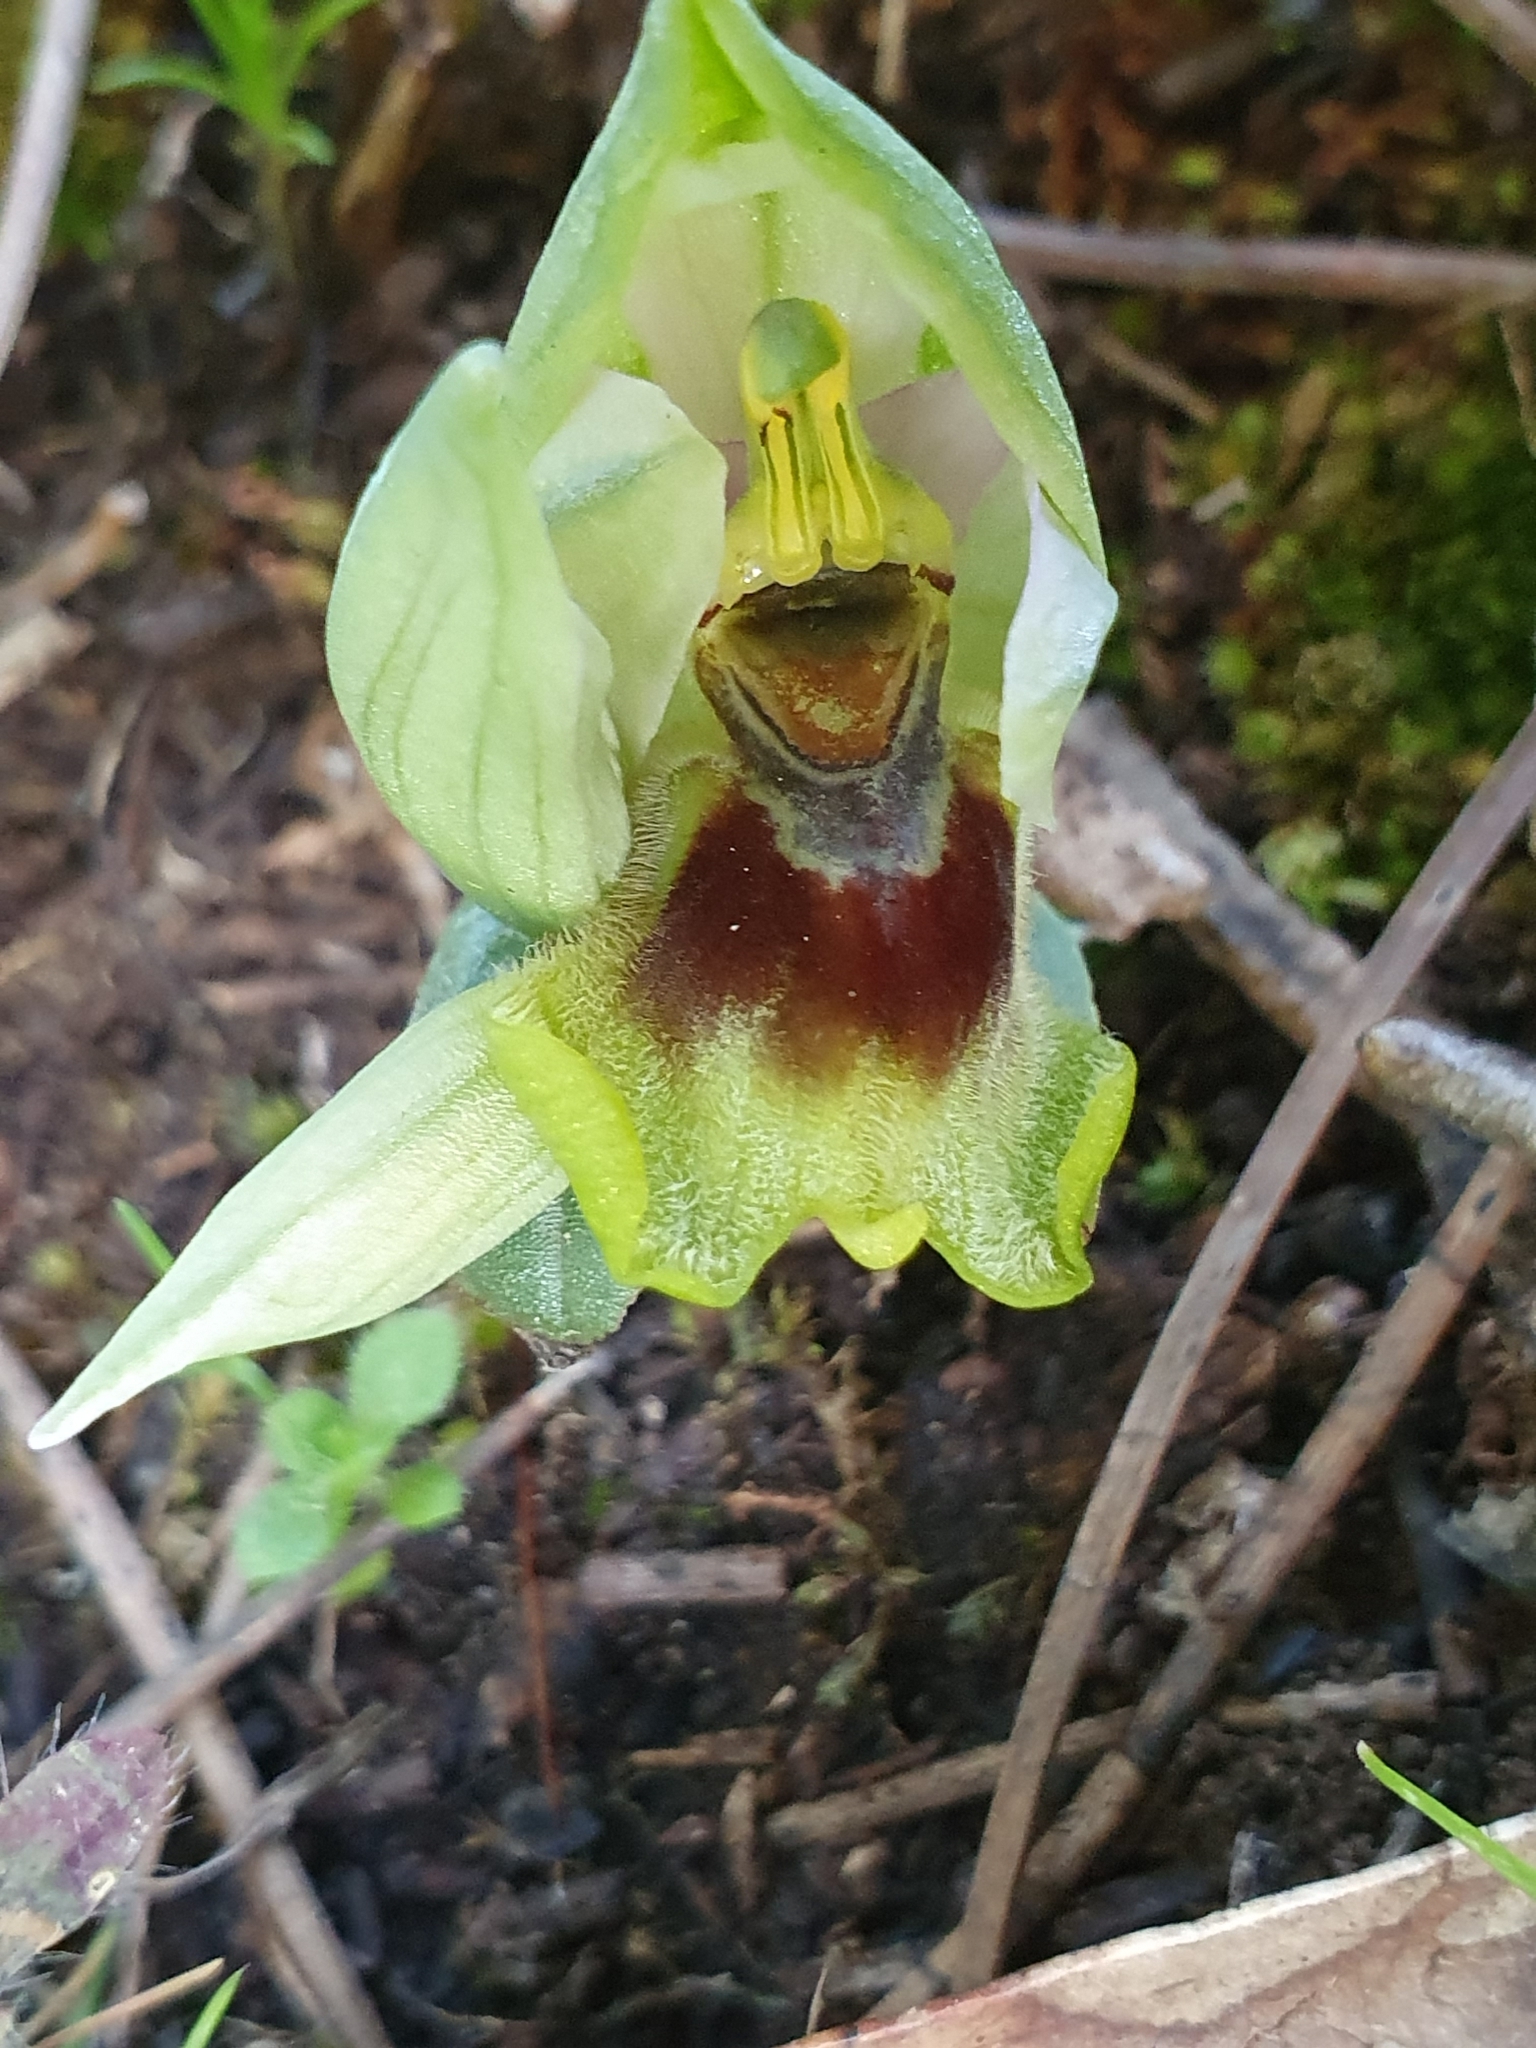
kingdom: Plantae
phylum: Tracheophyta
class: Liliopsida
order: Asparagales
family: Orchidaceae
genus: Ophrys
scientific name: Ophrys tenthredinifera
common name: Sawfly orchid
